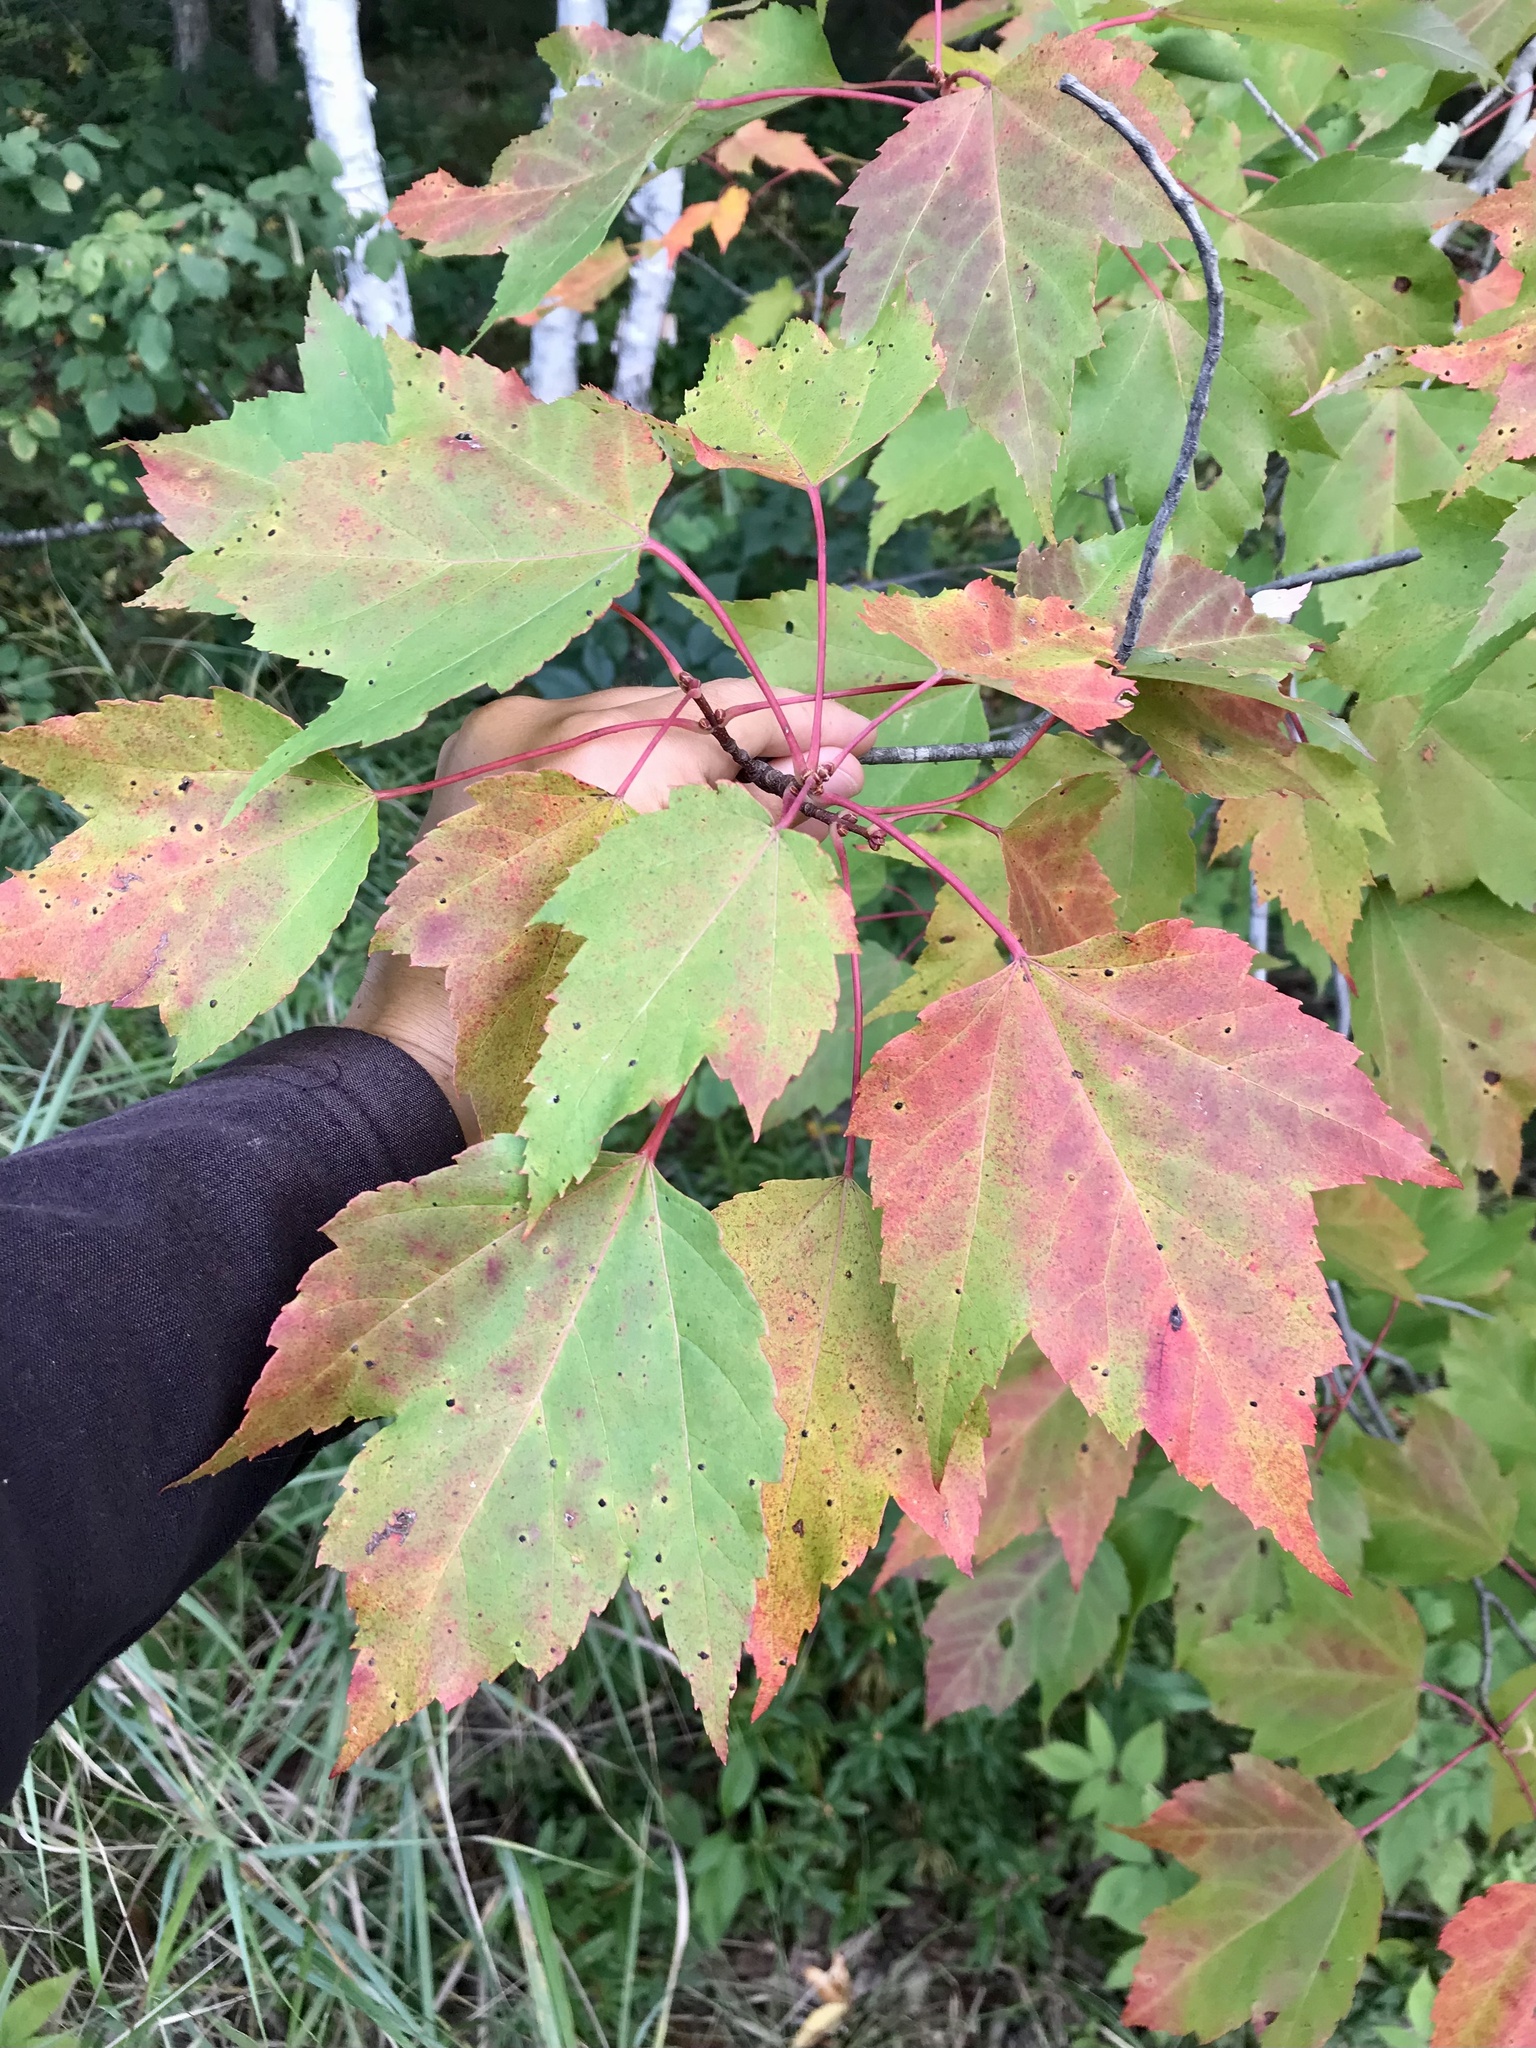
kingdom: Plantae
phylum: Tracheophyta
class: Magnoliopsida
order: Sapindales
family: Sapindaceae
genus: Acer
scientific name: Acer rubrum
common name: Red maple
